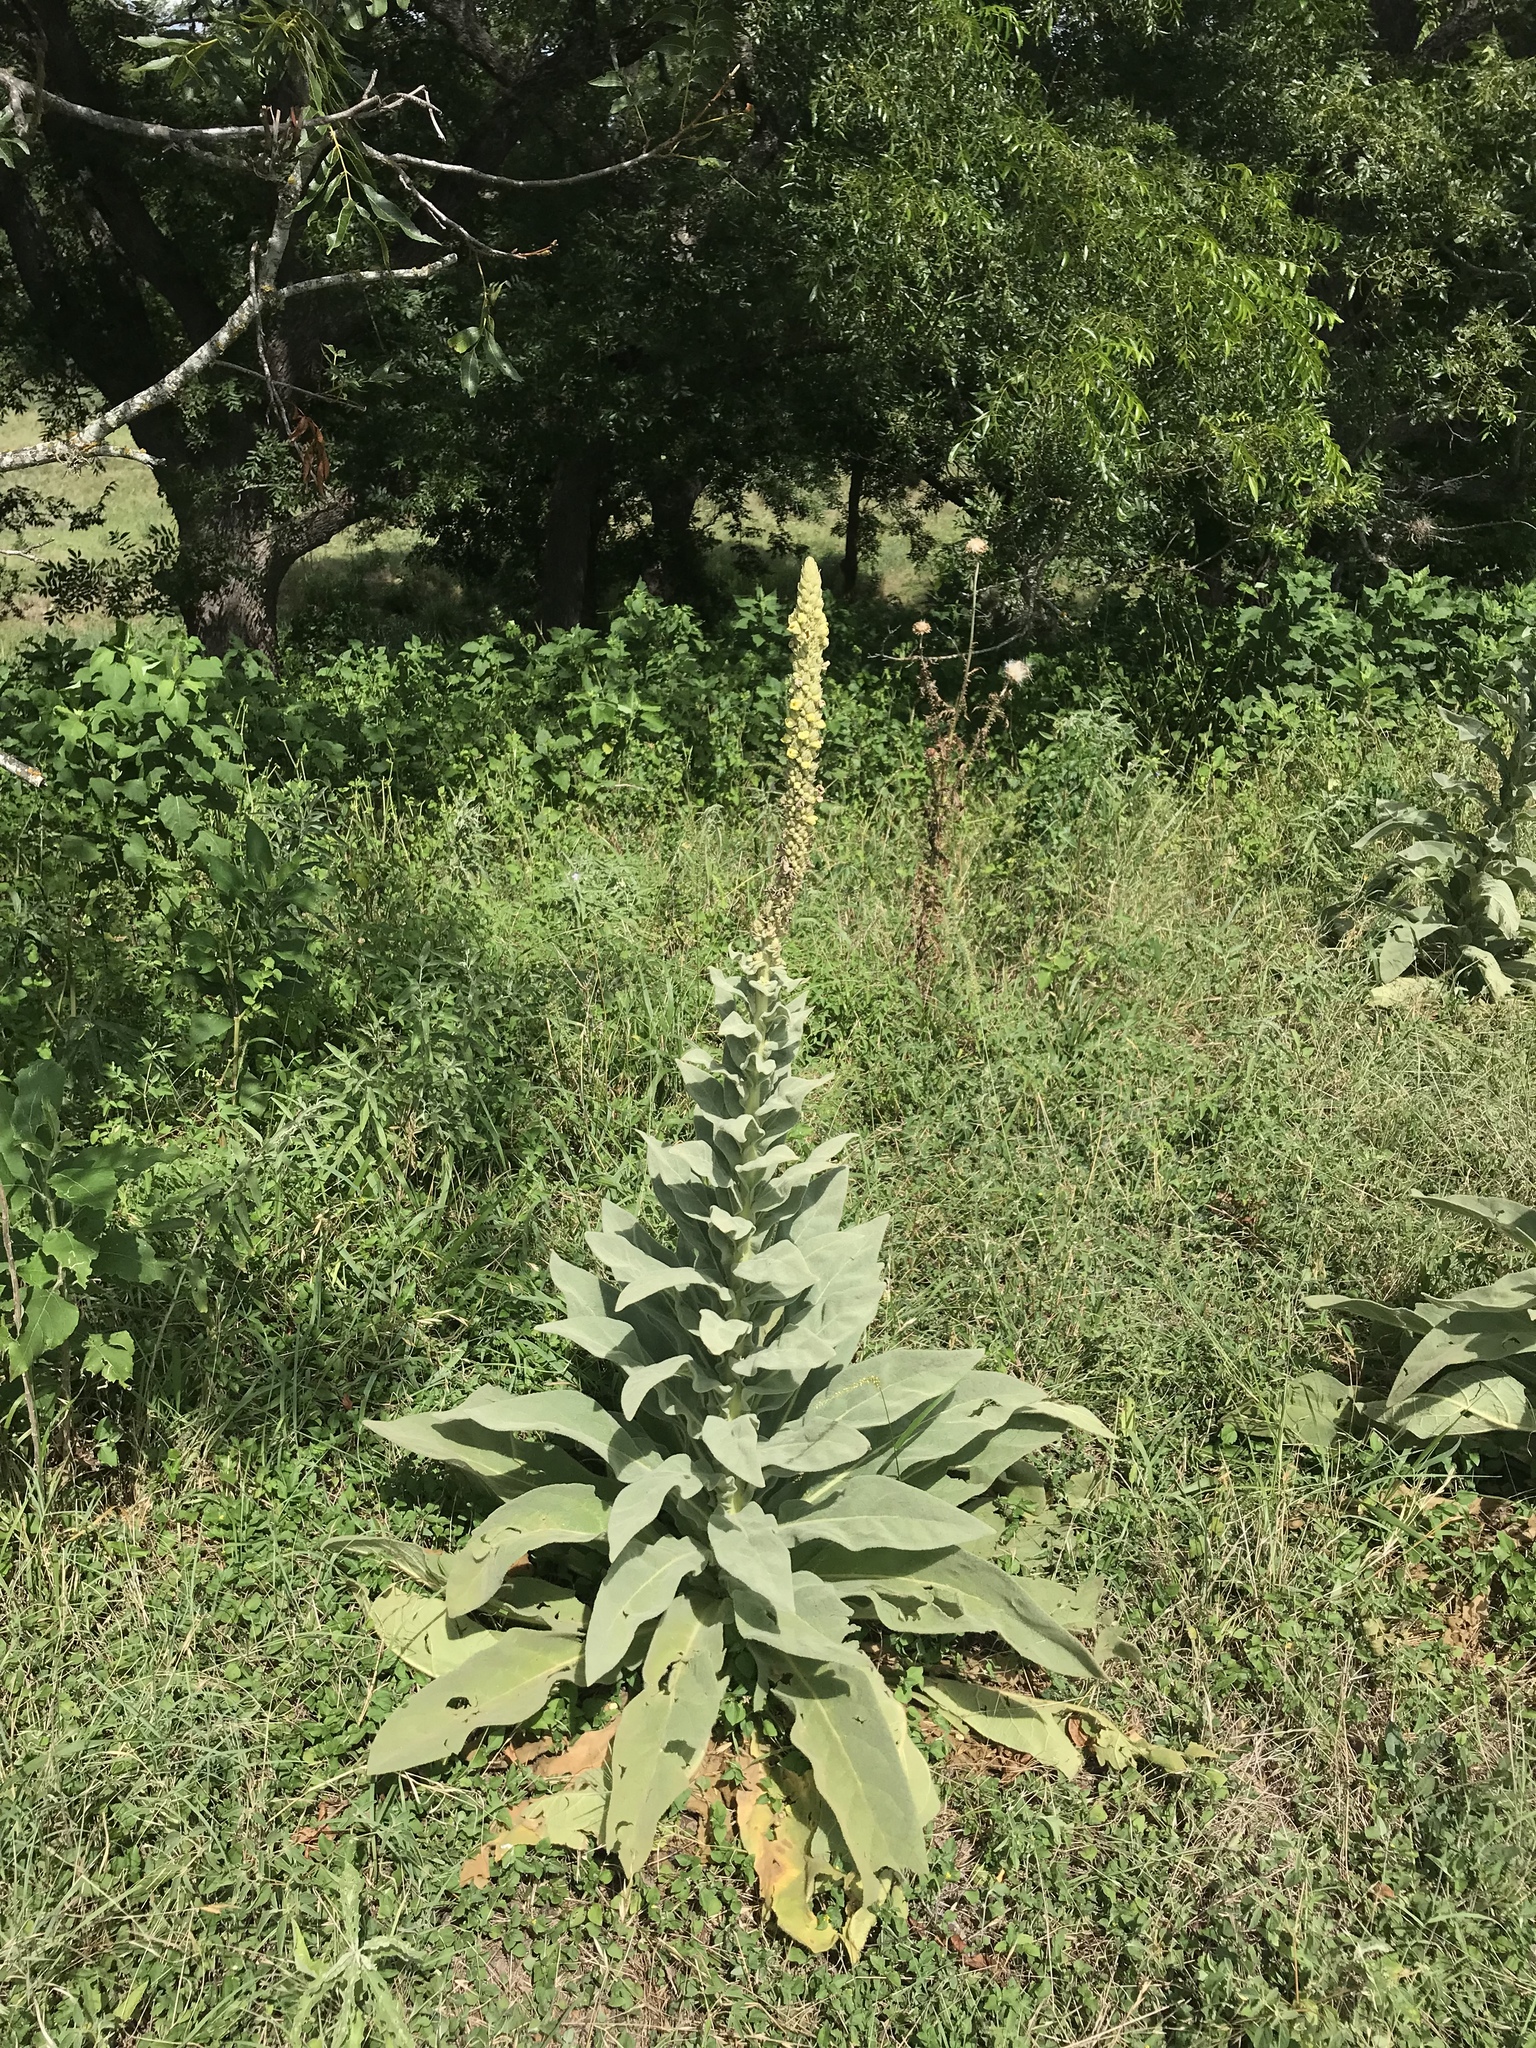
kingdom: Plantae
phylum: Tracheophyta
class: Magnoliopsida
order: Lamiales
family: Scrophulariaceae
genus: Verbascum
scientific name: Verbascum thapsus
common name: Common mullein
